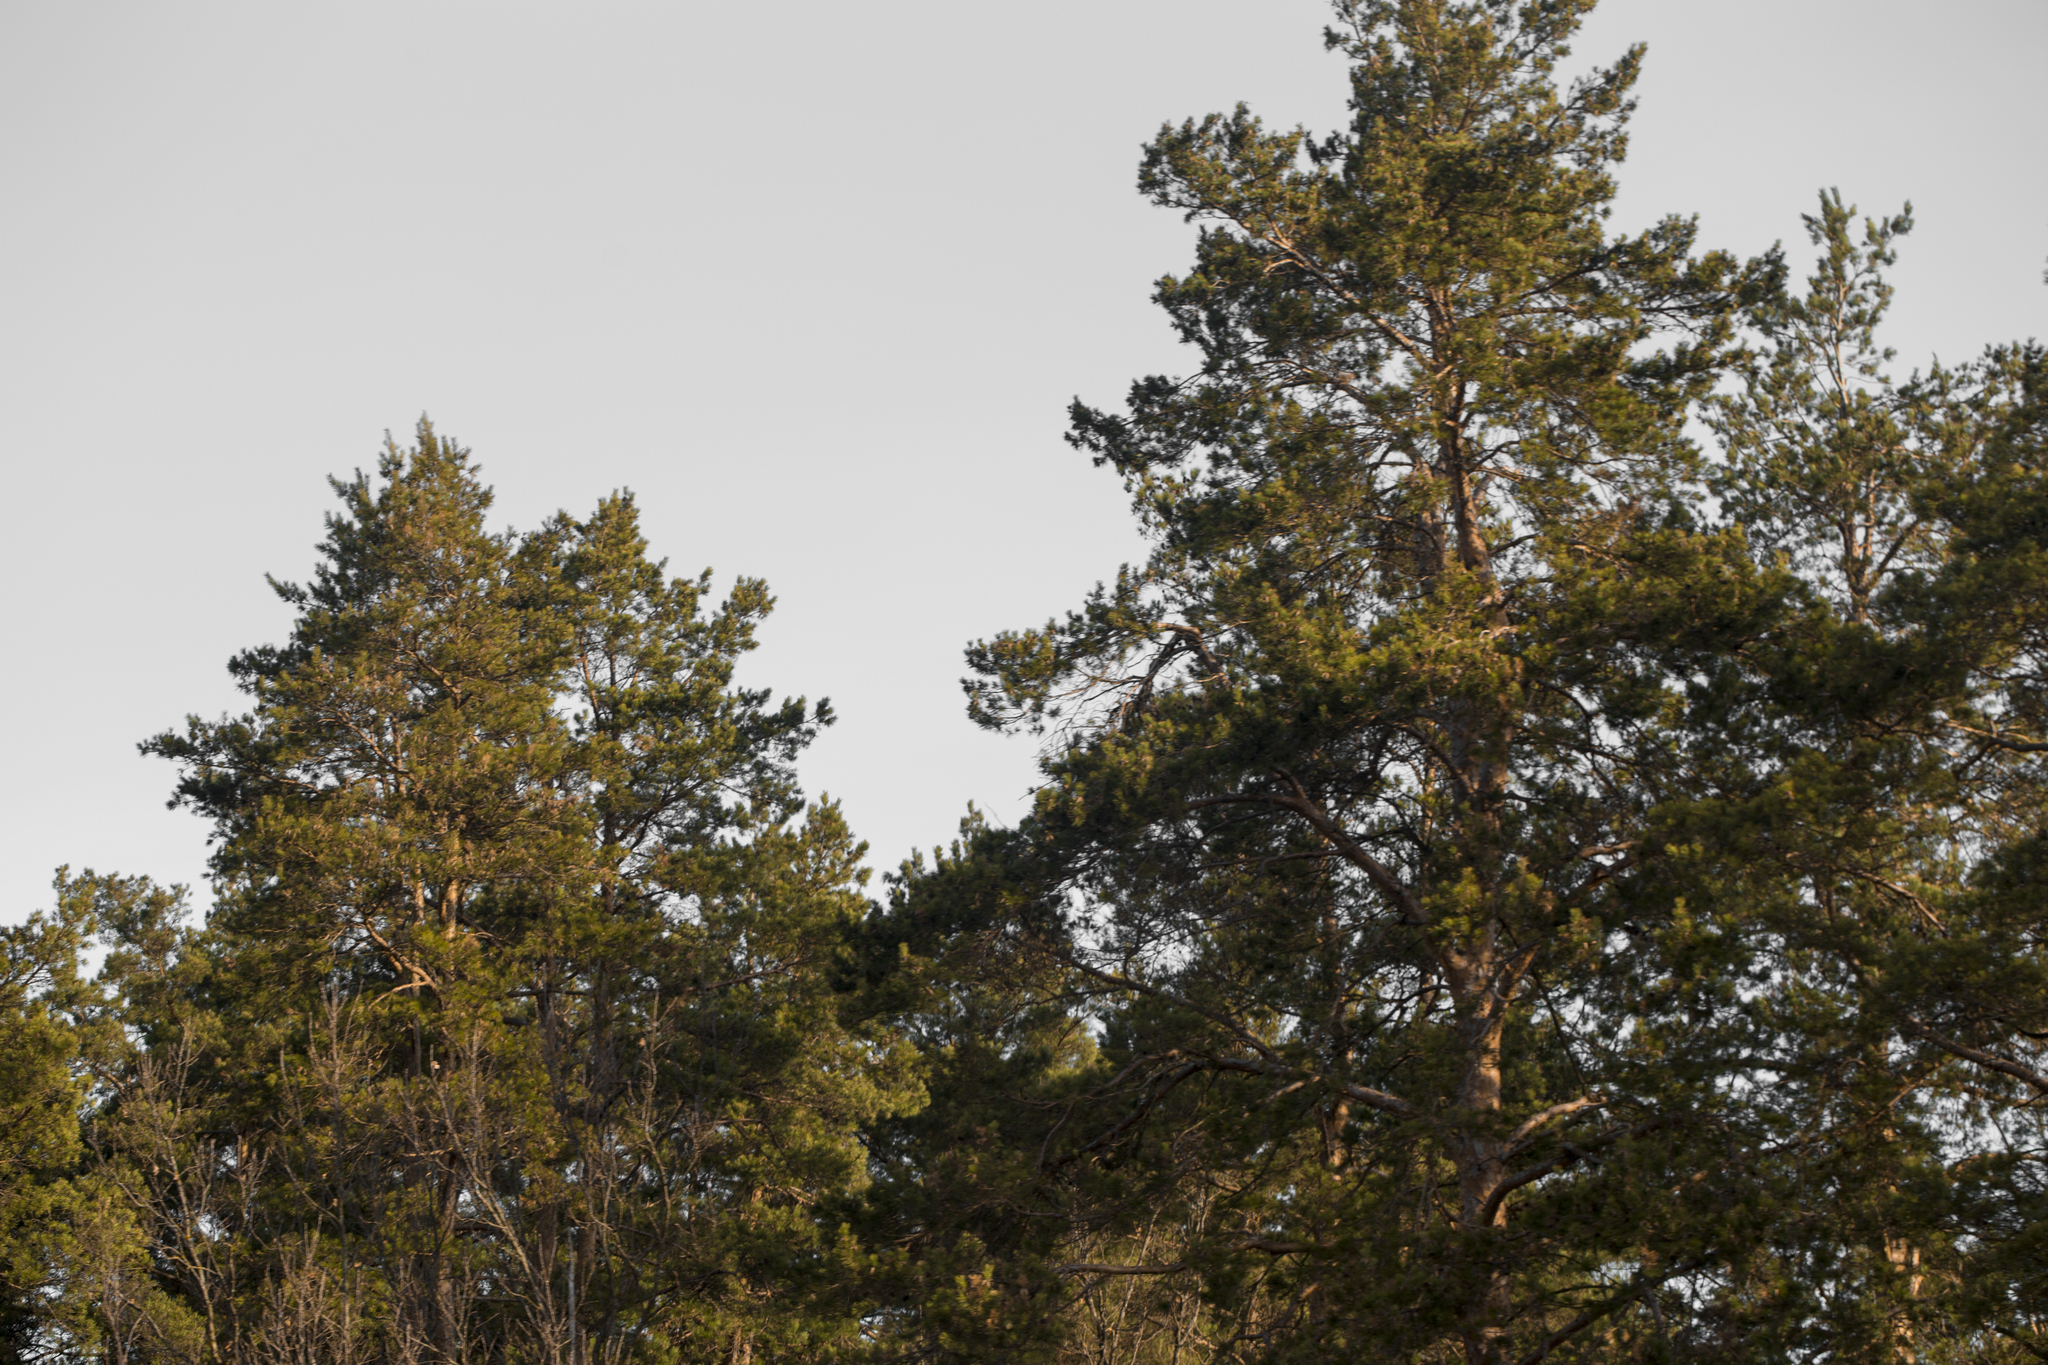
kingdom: Plantae
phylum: Tracheophyta
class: Pinopsida
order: Pinales
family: Pinaceae
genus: Pinus
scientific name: Pinus sylvestris
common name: Scots pine
